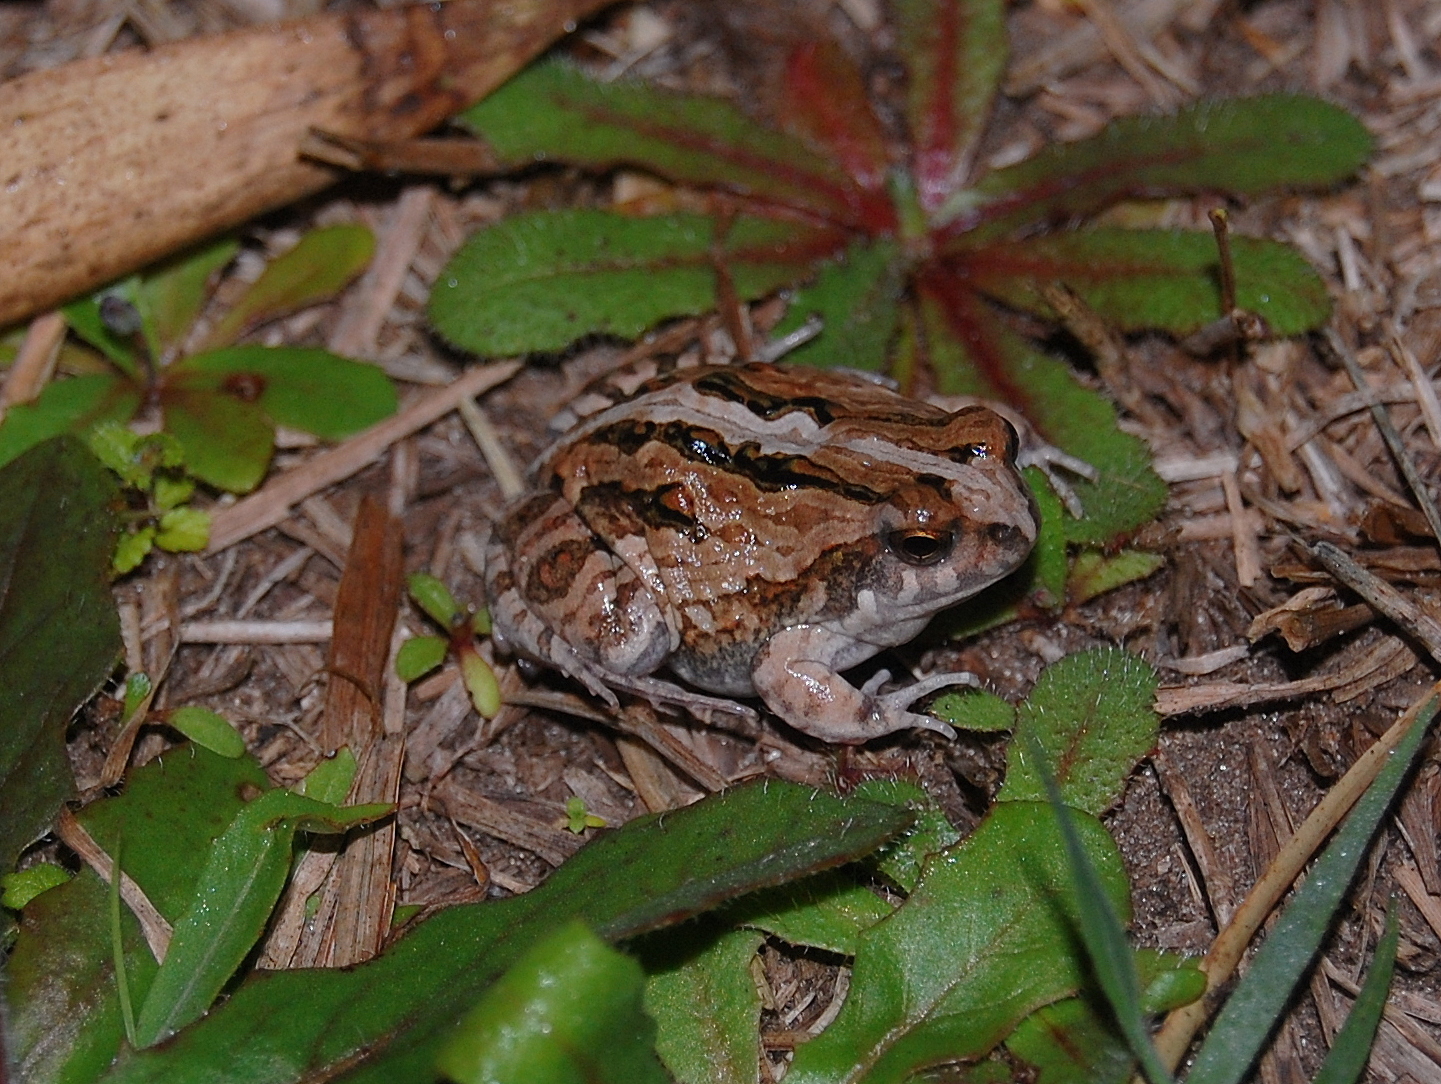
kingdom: Animalia
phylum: Chordata
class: Amphibia
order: Anura
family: Leptodactylidae
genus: Physalaemus
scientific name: Physalaemus biligonigerus
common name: Weeping frog
